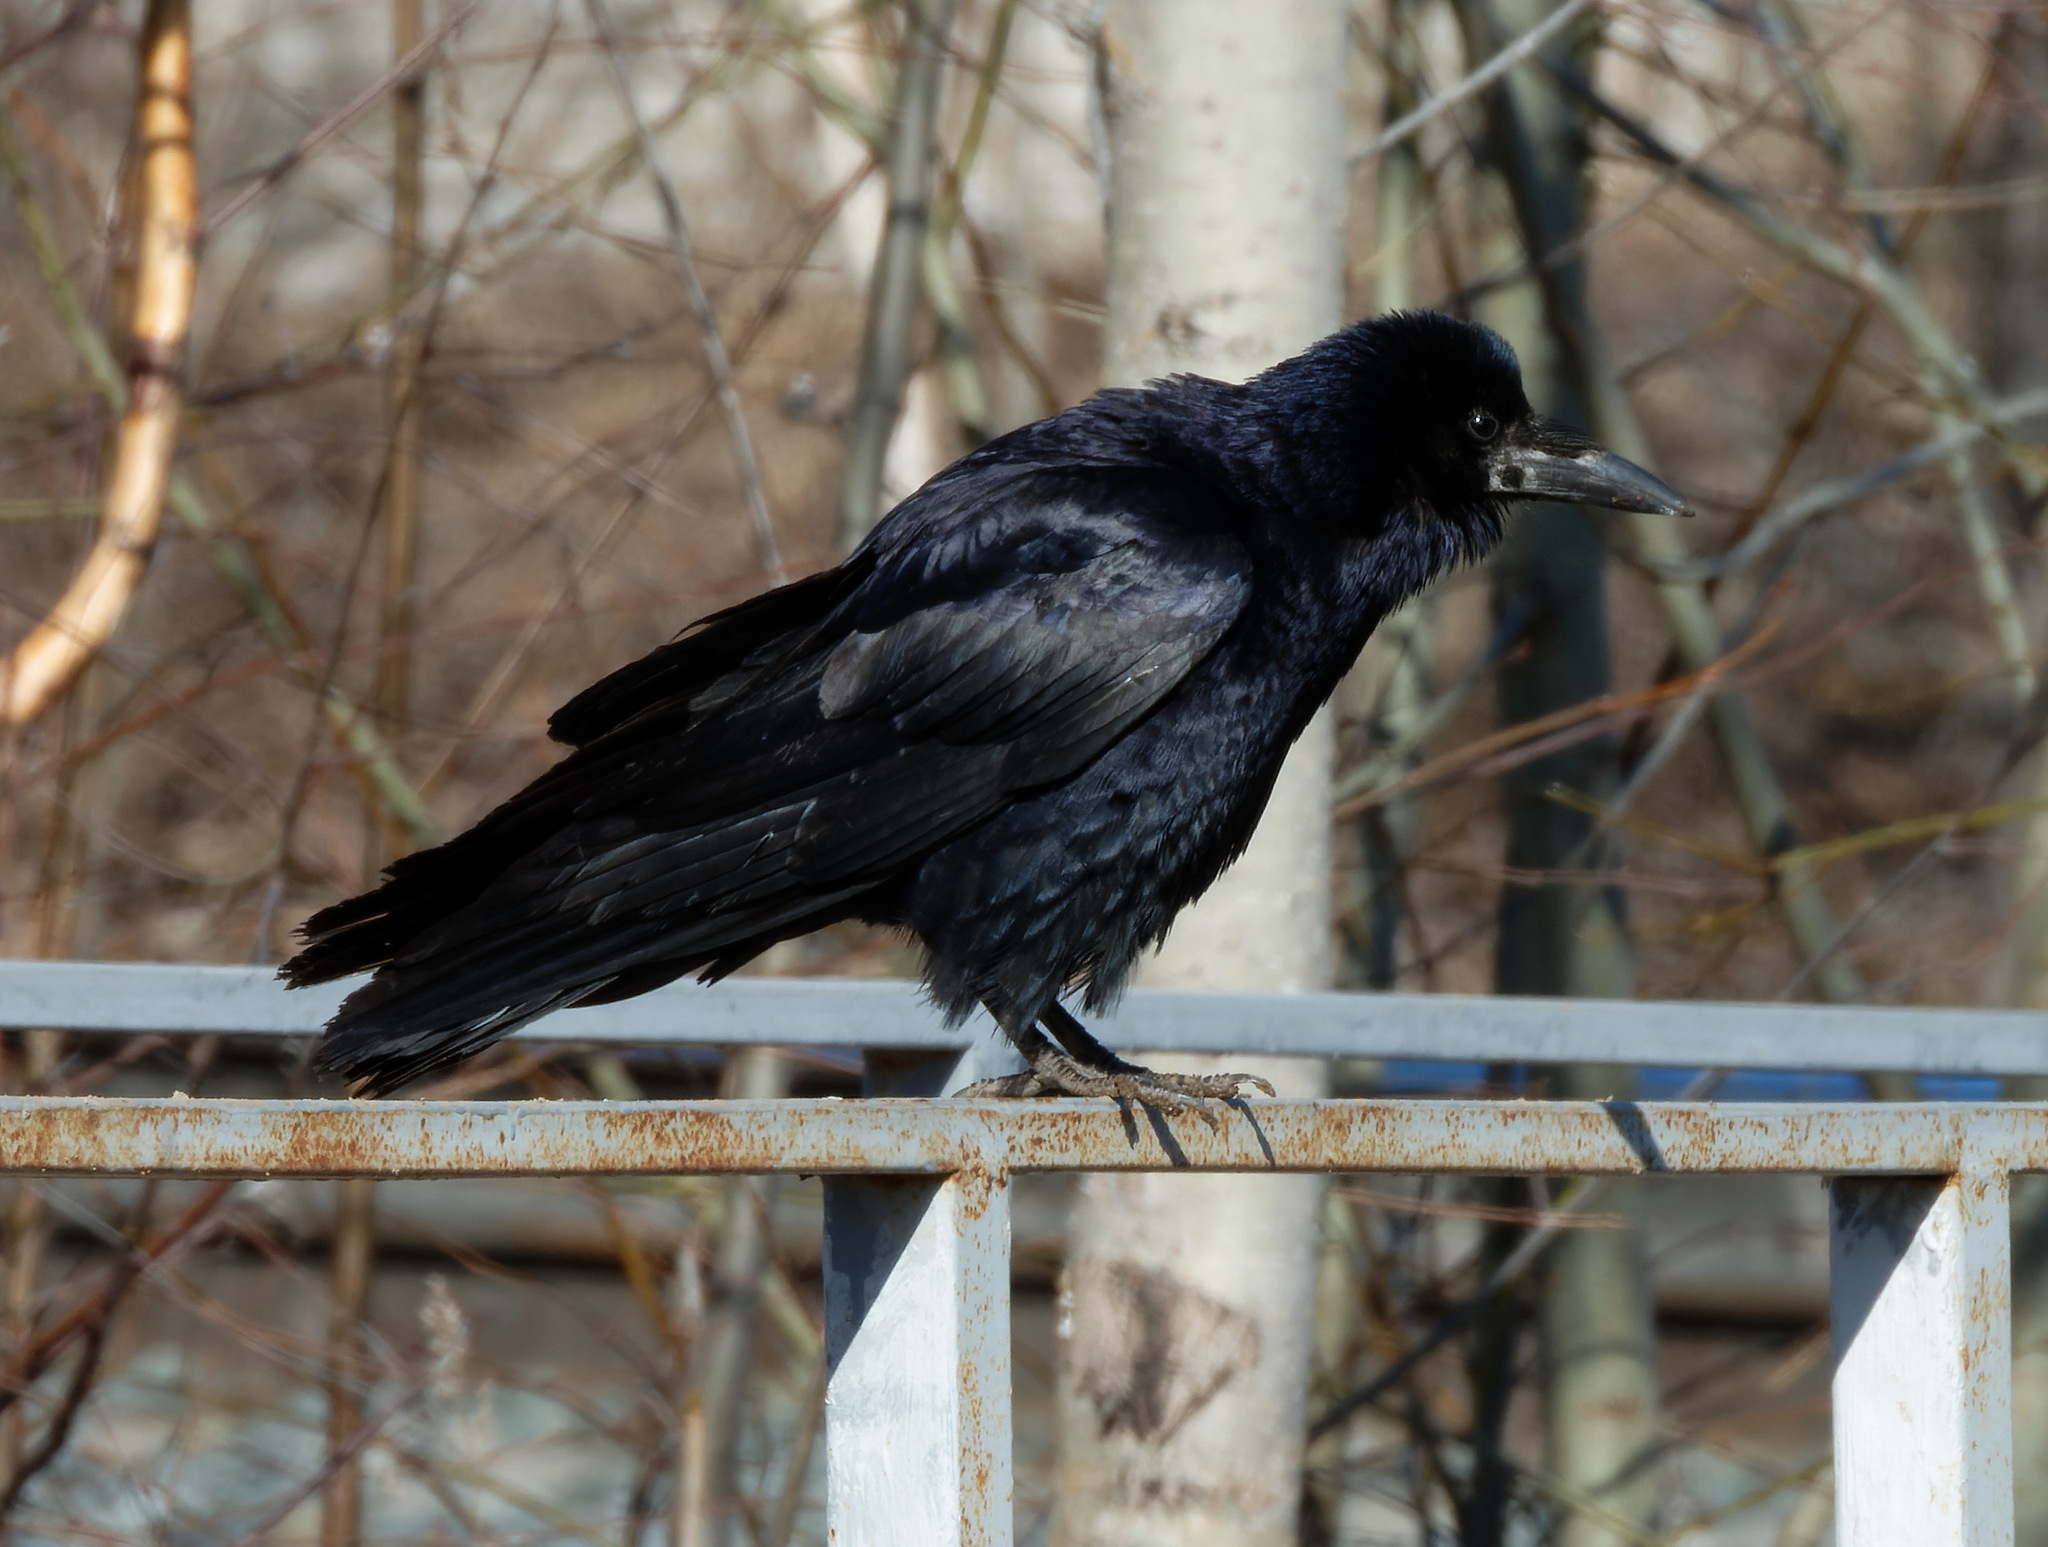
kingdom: Animalia
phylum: Chordata
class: Aves
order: Passeriformes
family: Corvidae
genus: Corvus
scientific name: Corvus frugilegus
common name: Rook
